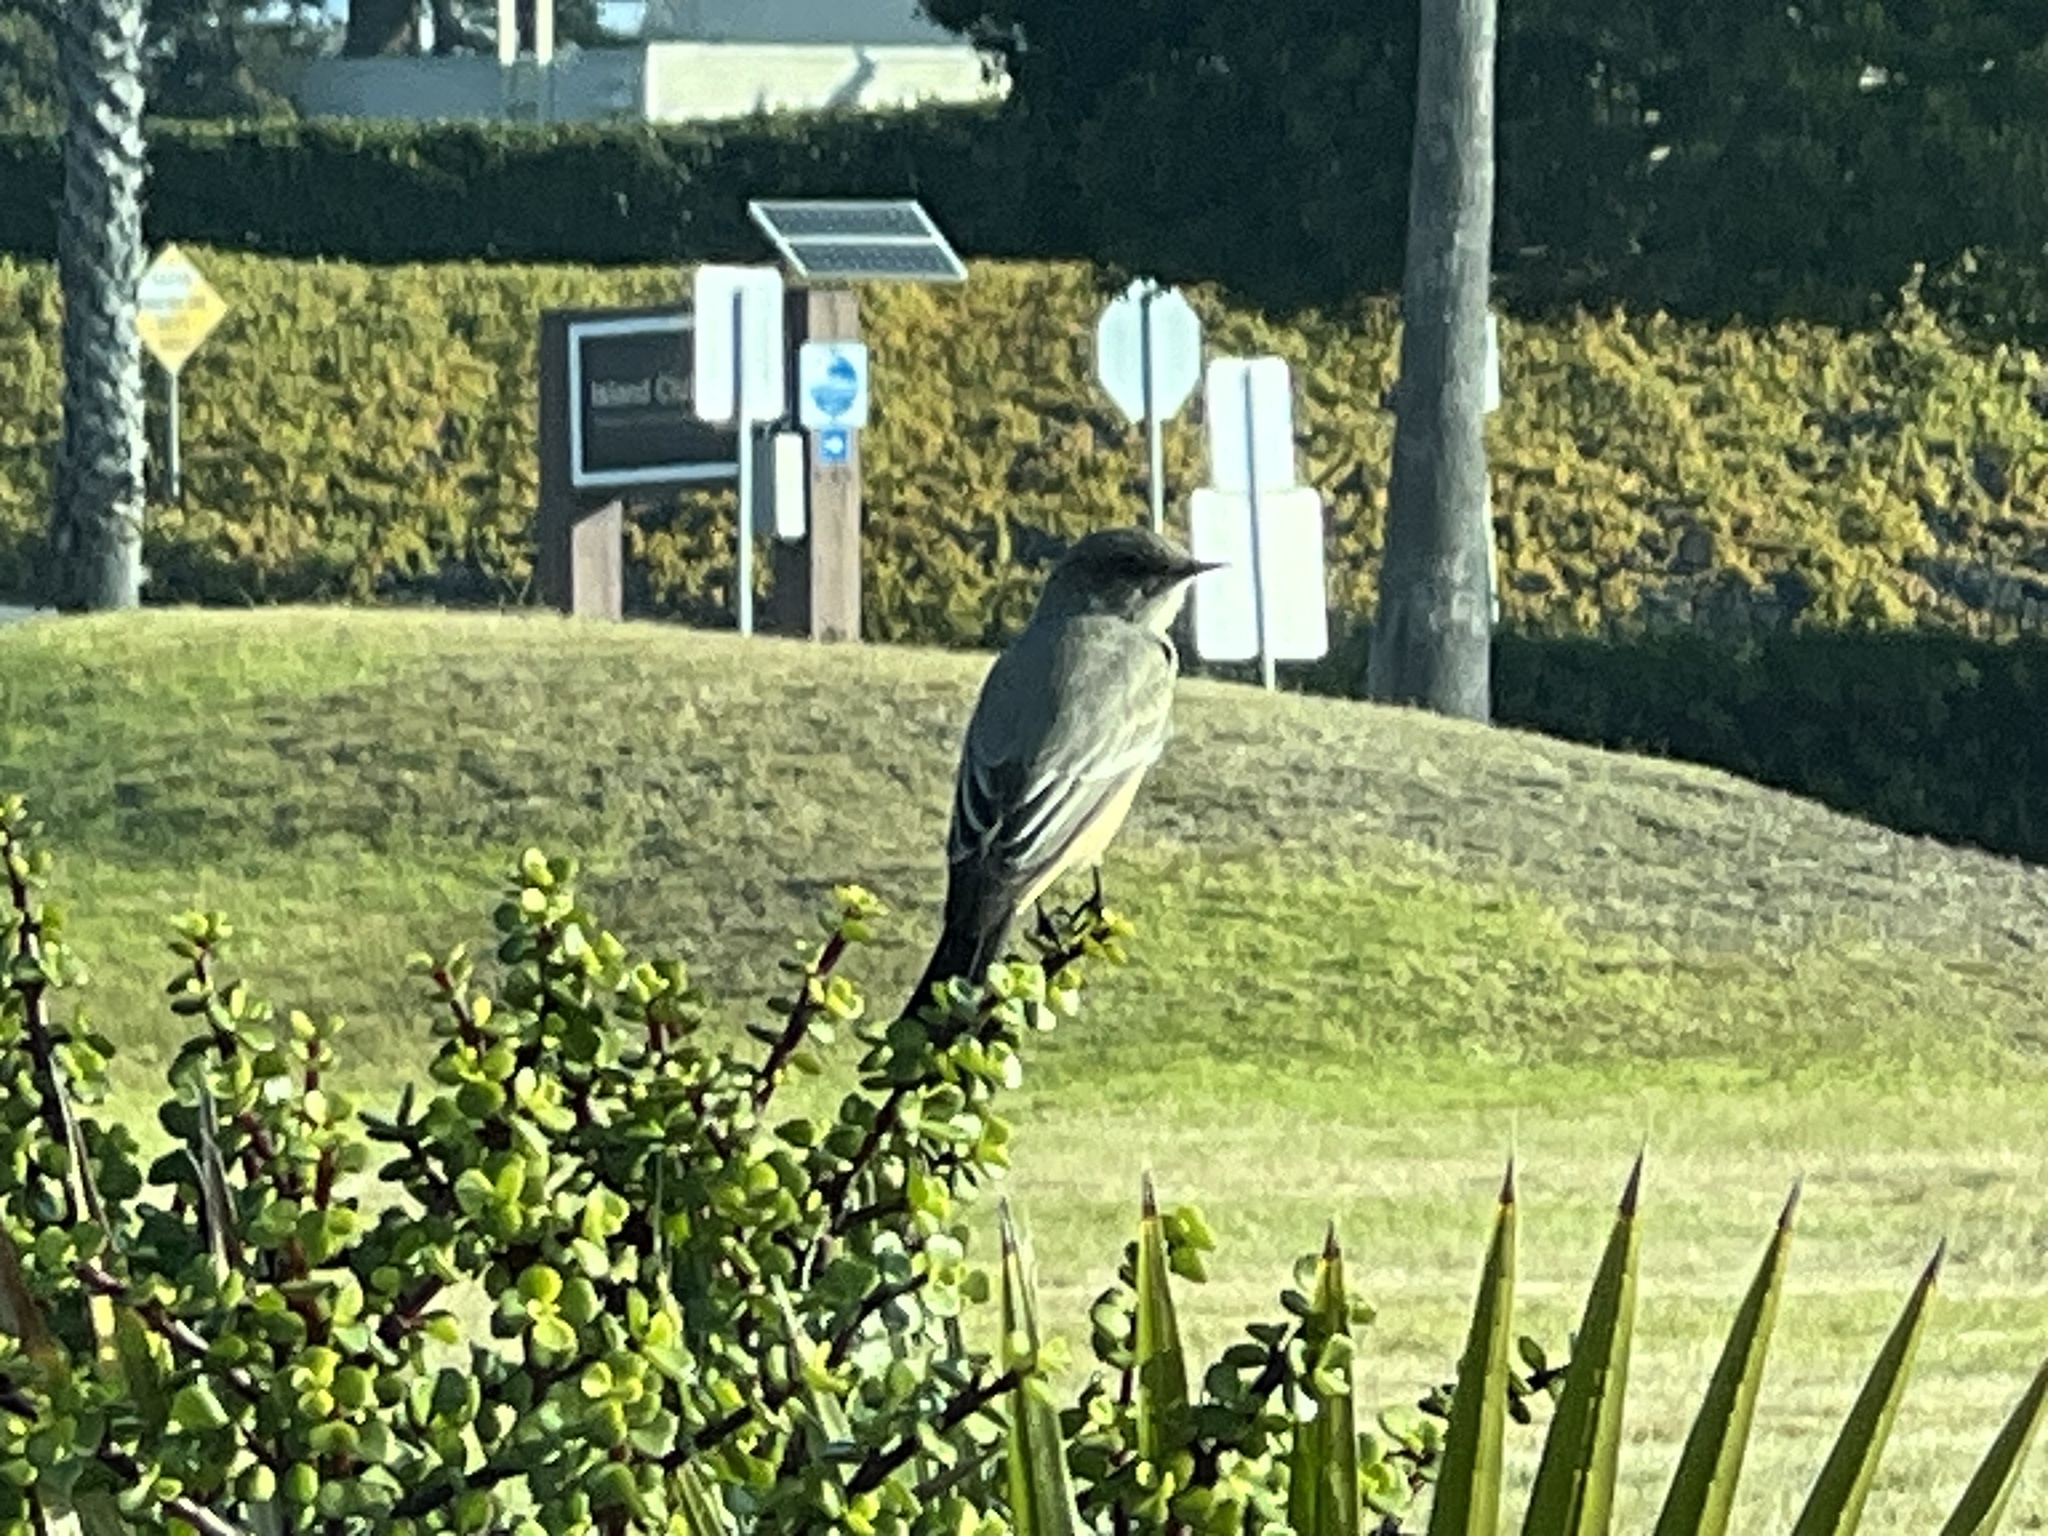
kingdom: Animalia
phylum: Chordata
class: Aves
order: Passeriformes
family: Tyrannidae
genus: Sayornis
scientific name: Sayornis saya
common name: Say's phoebe
